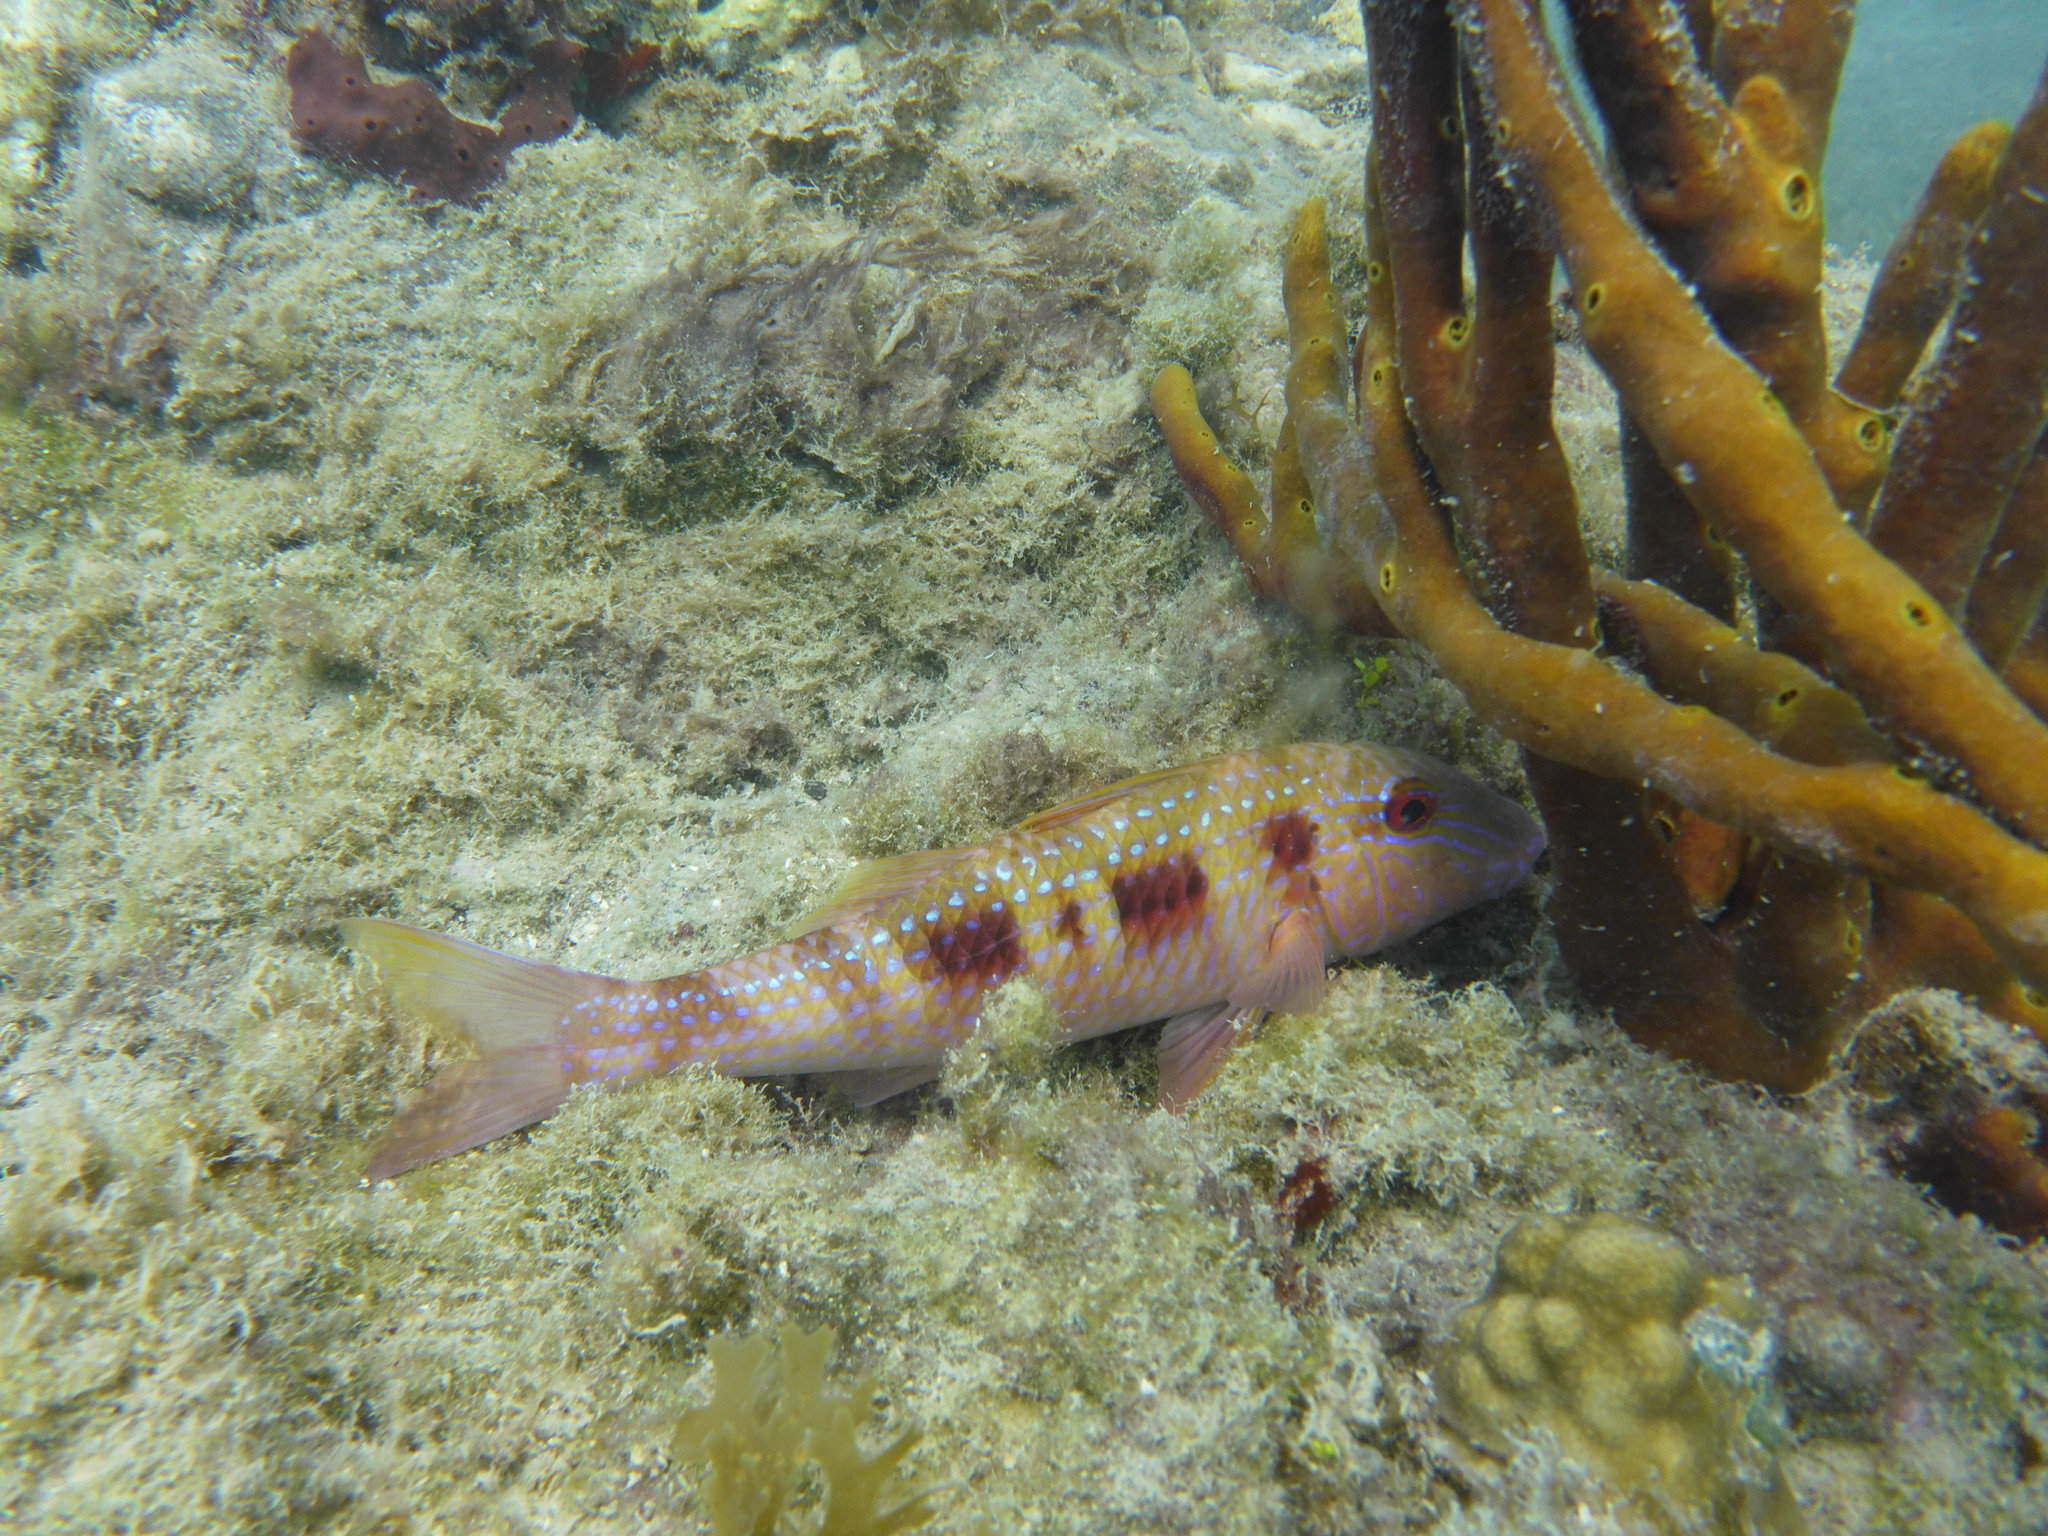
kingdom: Animalia
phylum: Chordata
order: Perciformes
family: Mullidae
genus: Pseudupeneus
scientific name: Pseudupeneus maculatus
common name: Spotted goatfish
